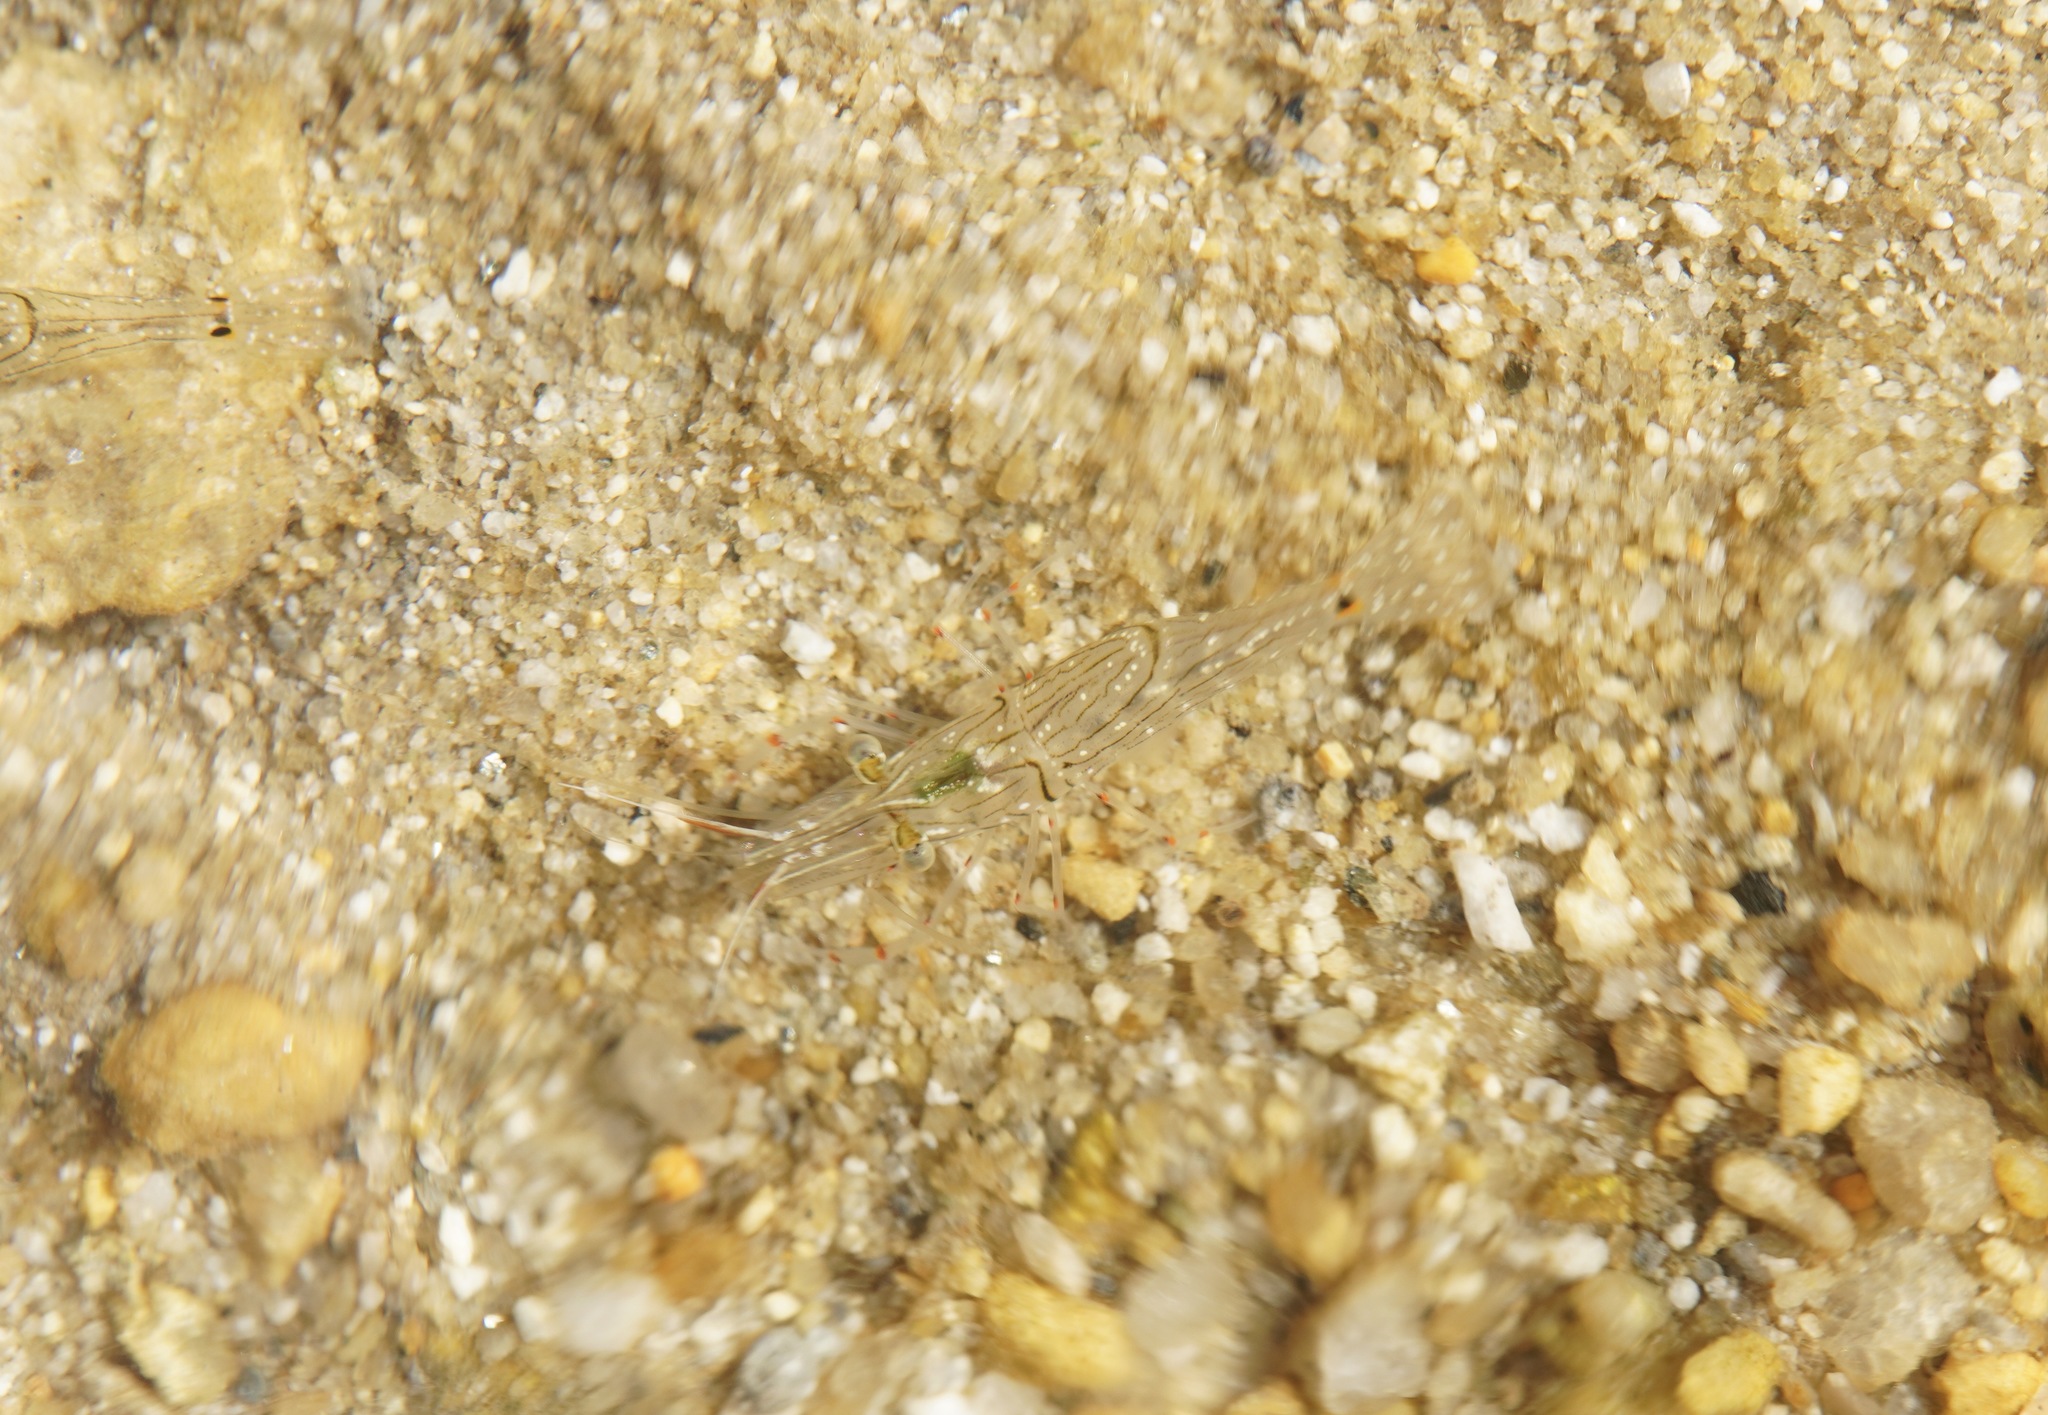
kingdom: Animalia
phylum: Arthropoda
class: Malacostraca
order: Decapoda
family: Palaemonidae
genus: Palaemon
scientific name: Palaemon affinis
